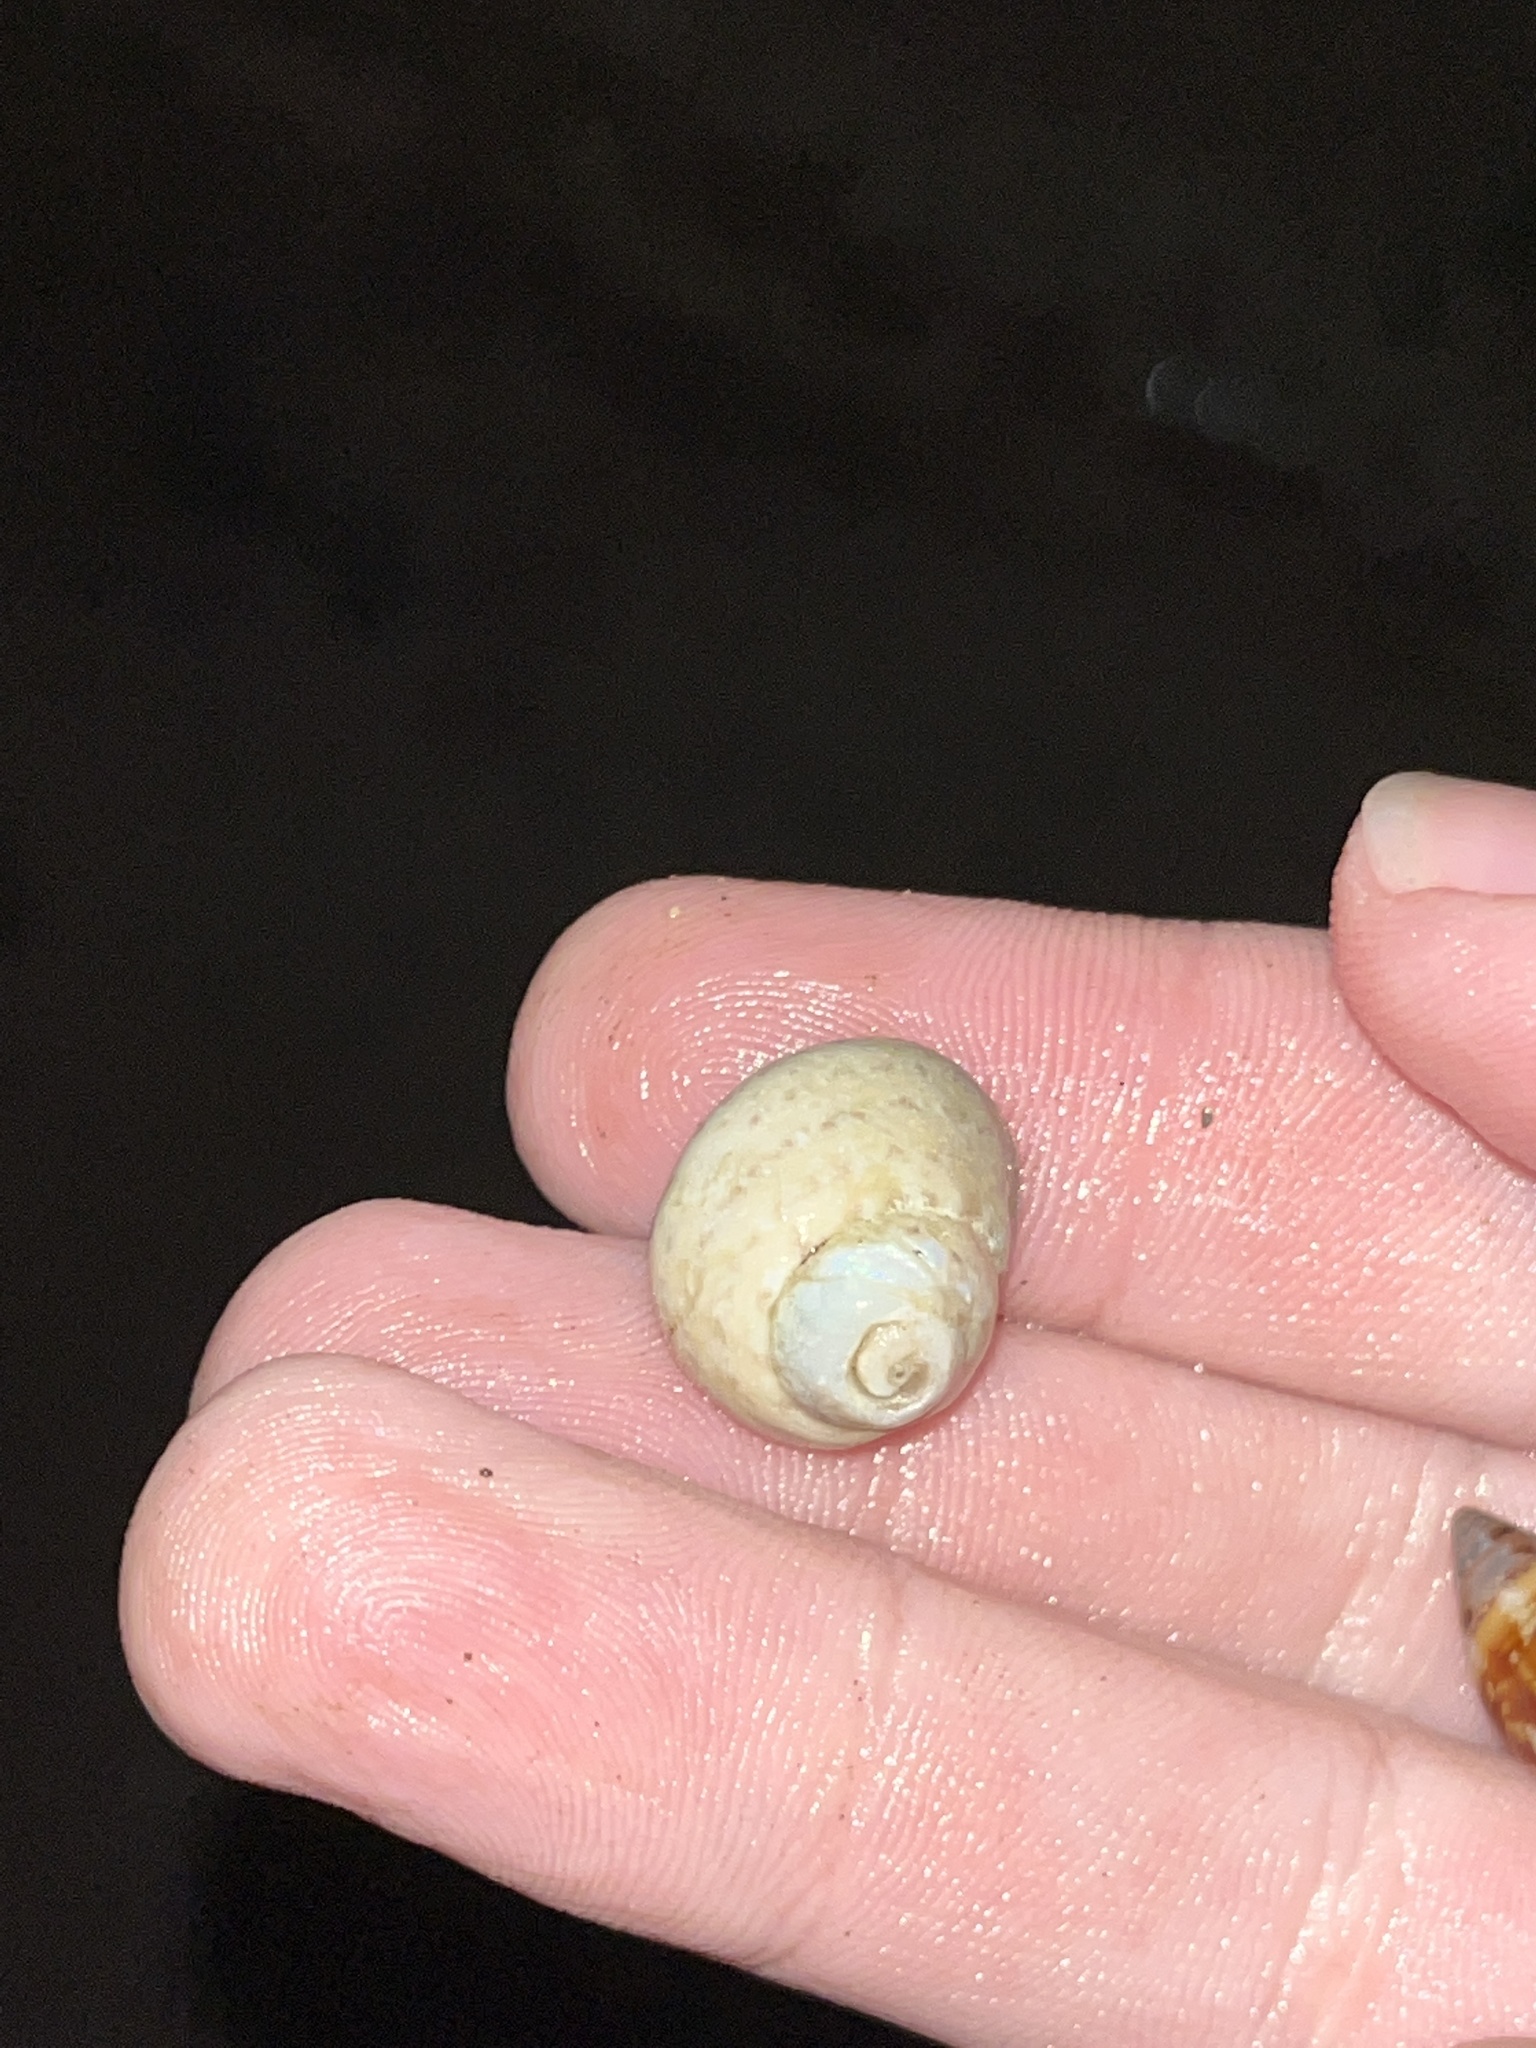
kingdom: Animalia
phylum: Mollusca
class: Gastropoda
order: Trochida
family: Trochidae
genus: Phorcus
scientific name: Phorcus mutabilis
